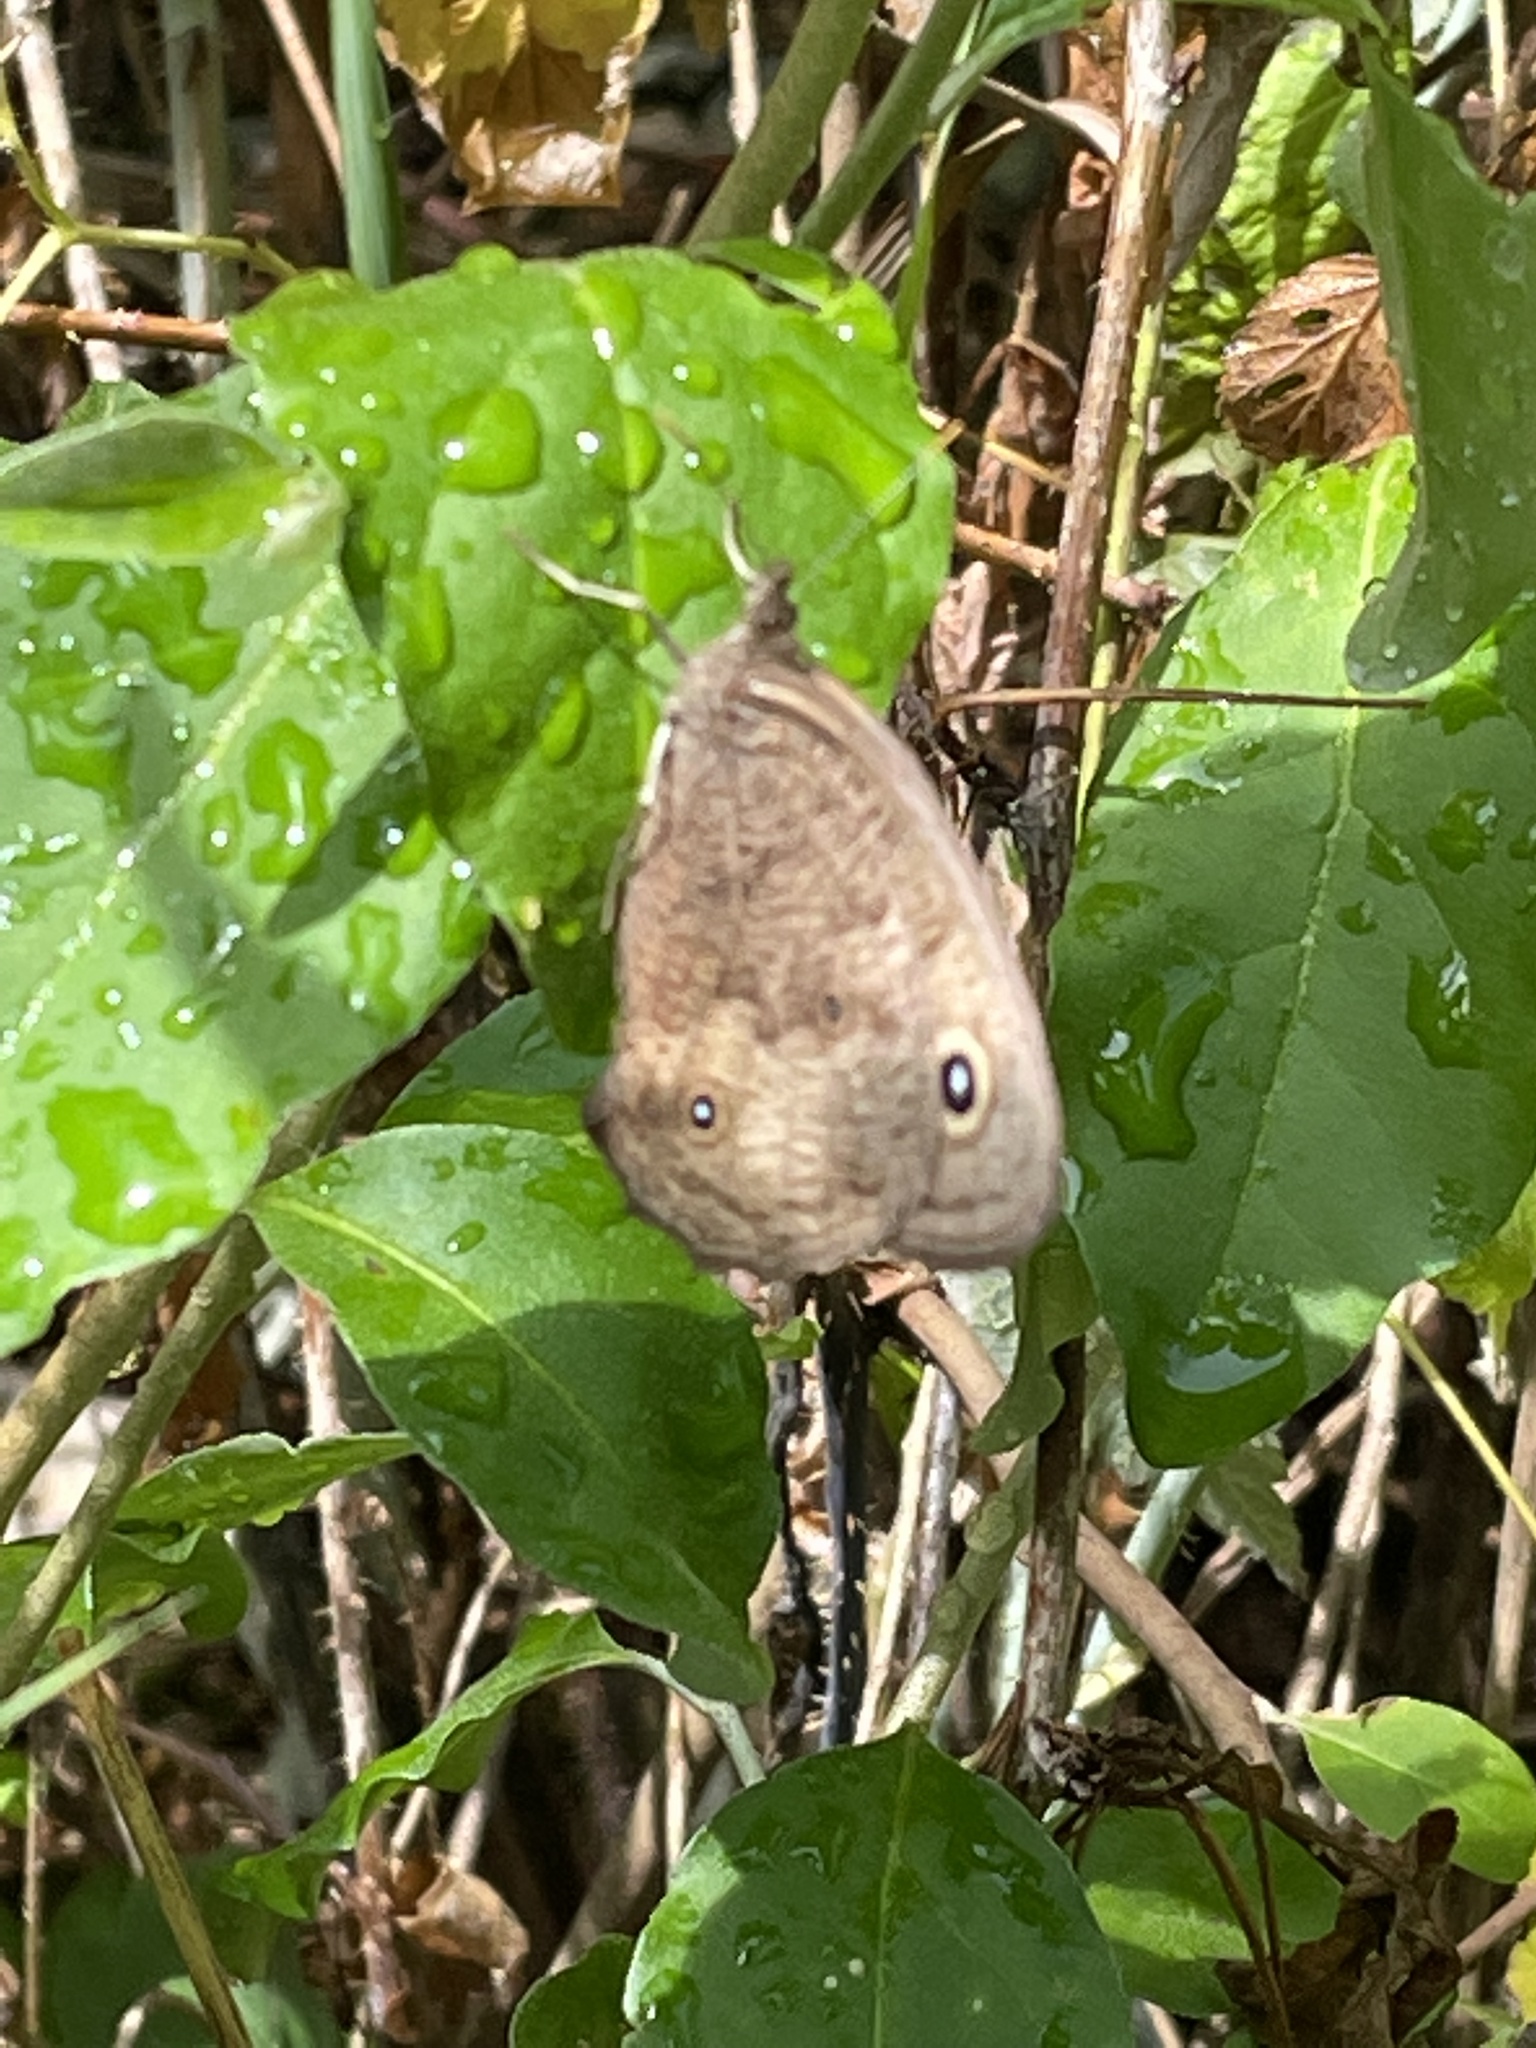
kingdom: Animalia
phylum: Arthropoda
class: Insecta
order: Lepidoptera
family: Nymphalidae
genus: Cercyonis
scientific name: Cercyonis pegala
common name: Common wood-nymph
